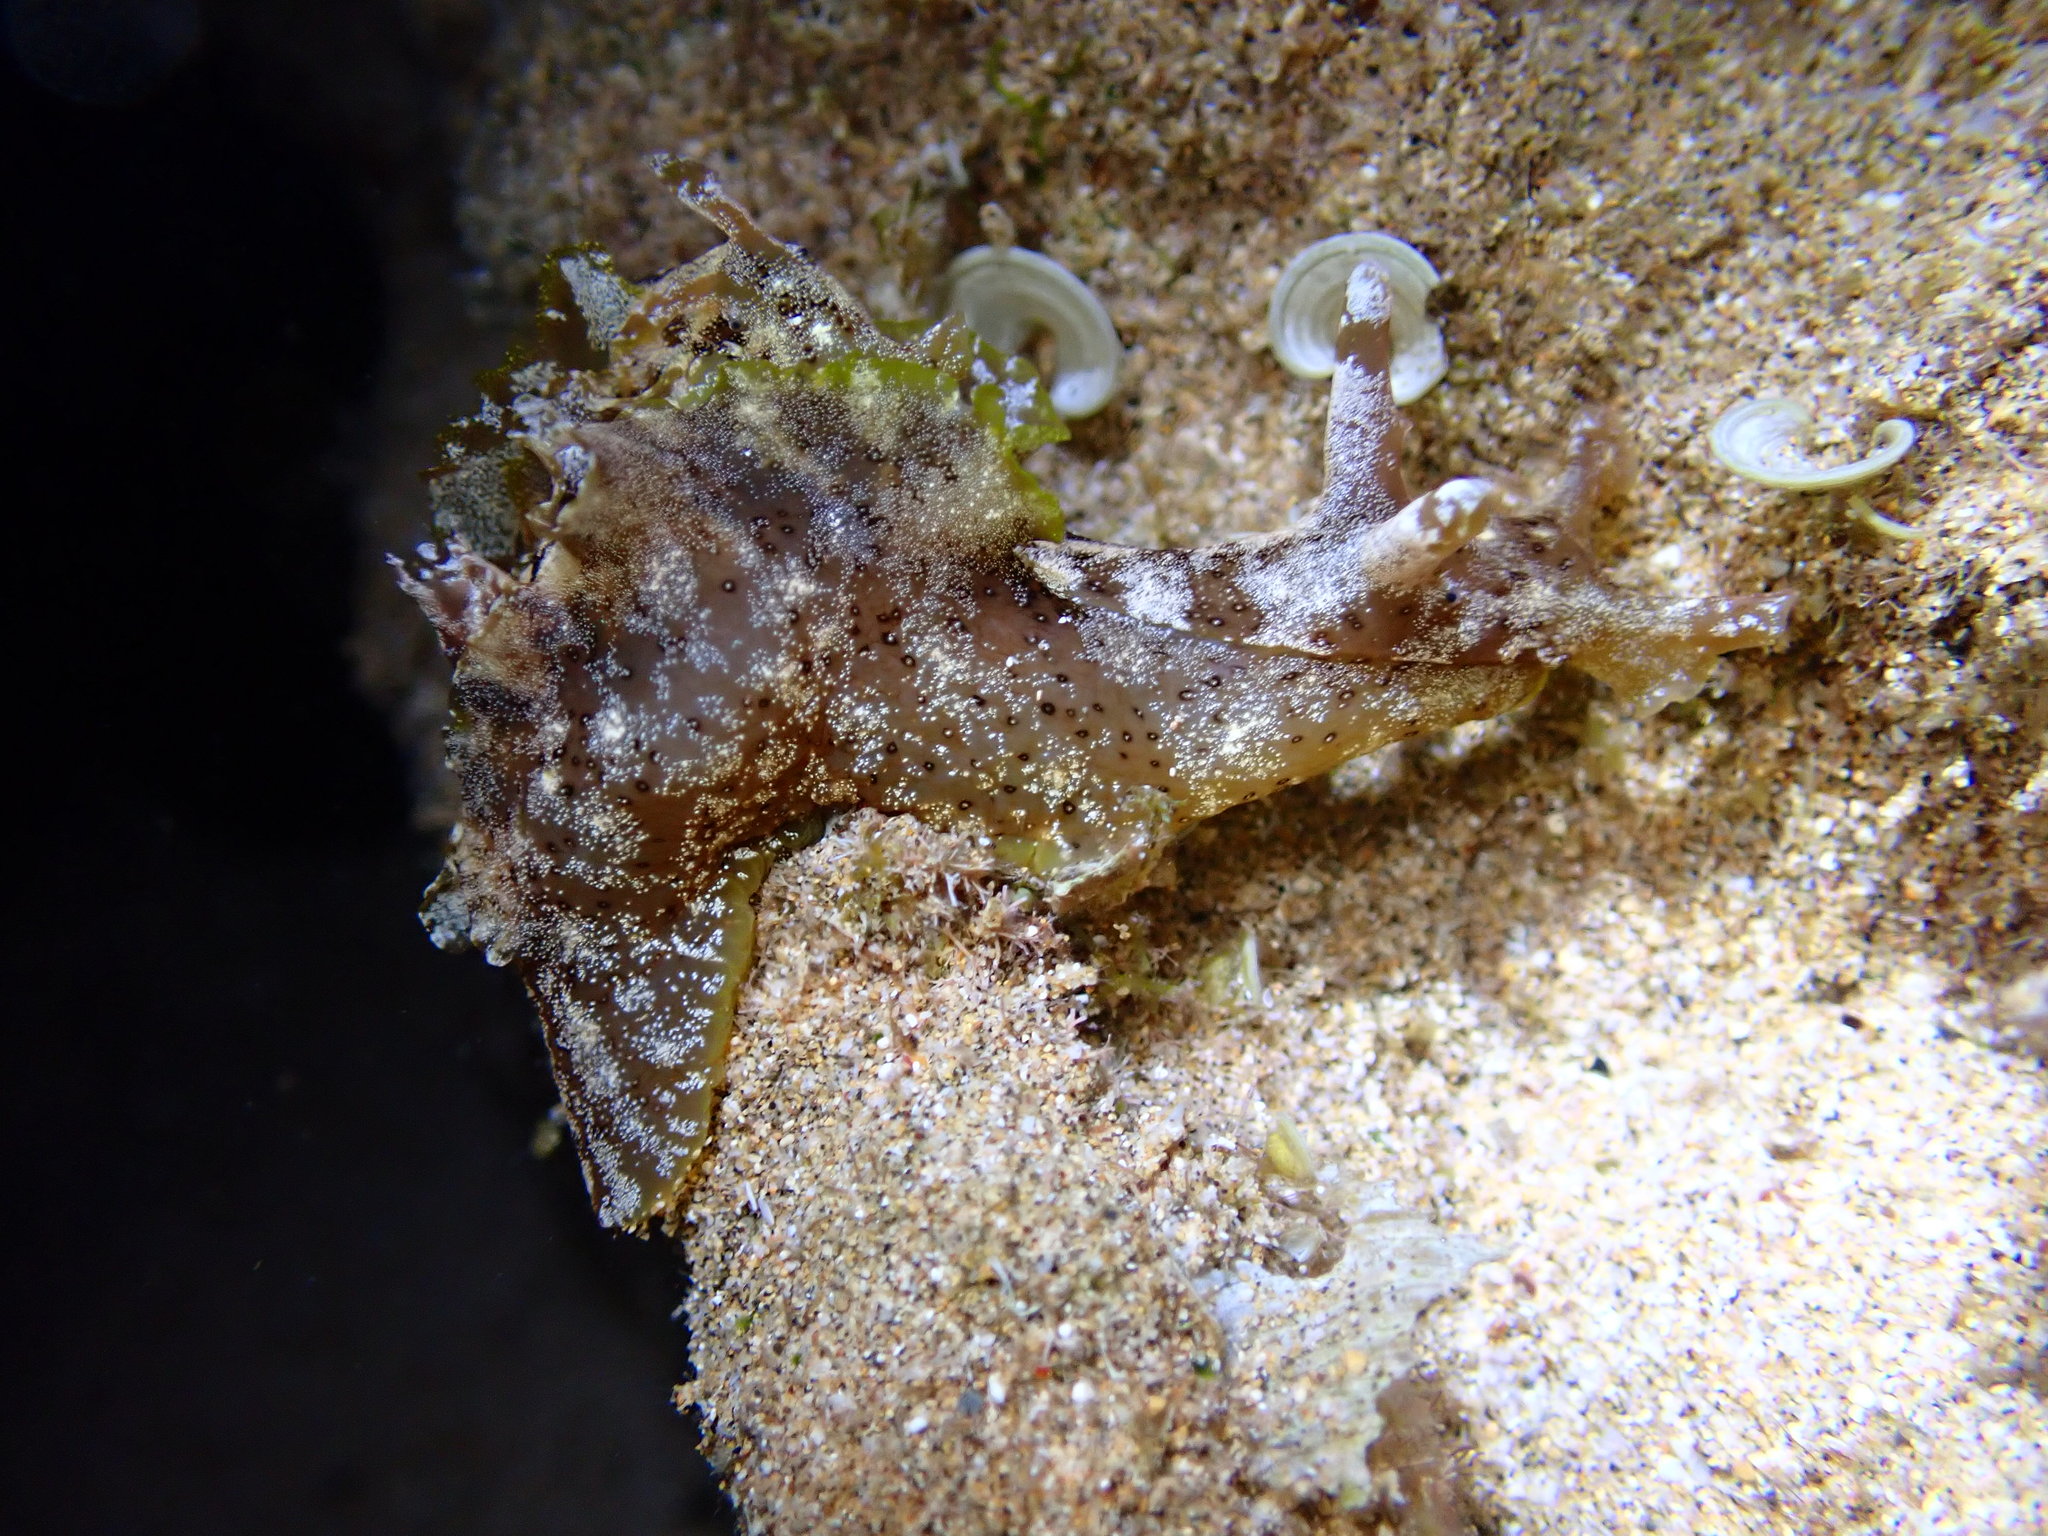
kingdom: Animalia
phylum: Mollusca
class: Gastropoda
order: Aplysiida
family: Aplysiidae
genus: Aplysia
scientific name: Aplysia oculifera
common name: Spotted sea hare
